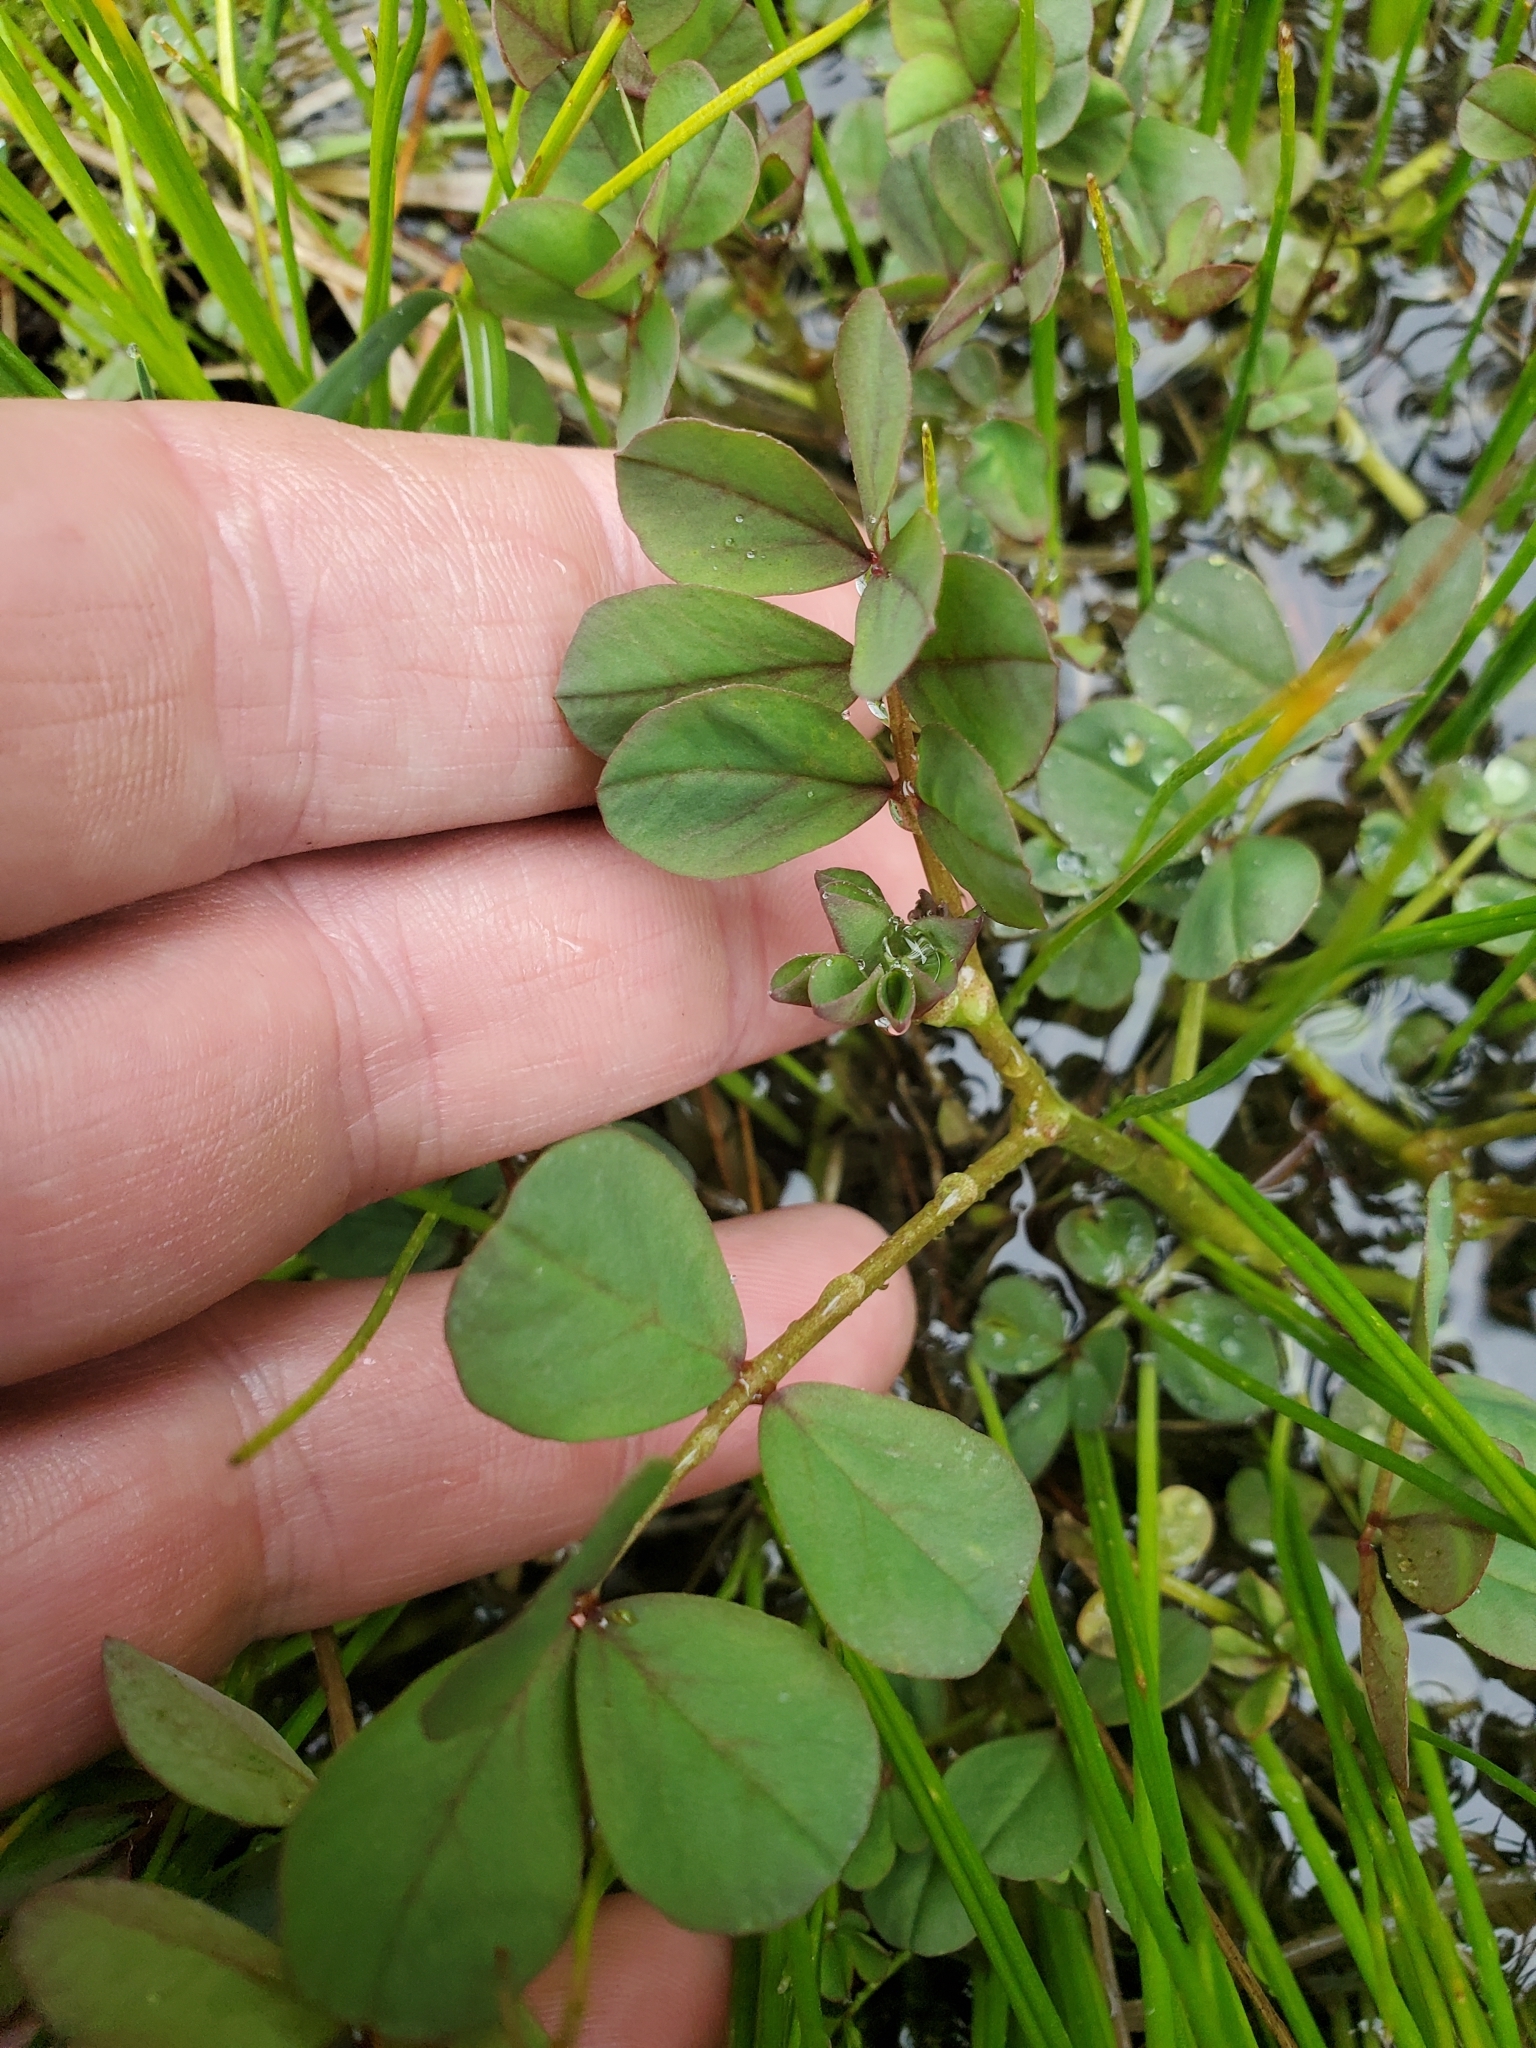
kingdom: Plantae
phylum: Tracheophyta
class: Magnoliopsida
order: Fabales
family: Fabaceae
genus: Hosackia
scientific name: Hosackia pinnata
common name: Bog bird's-foot trefoil
